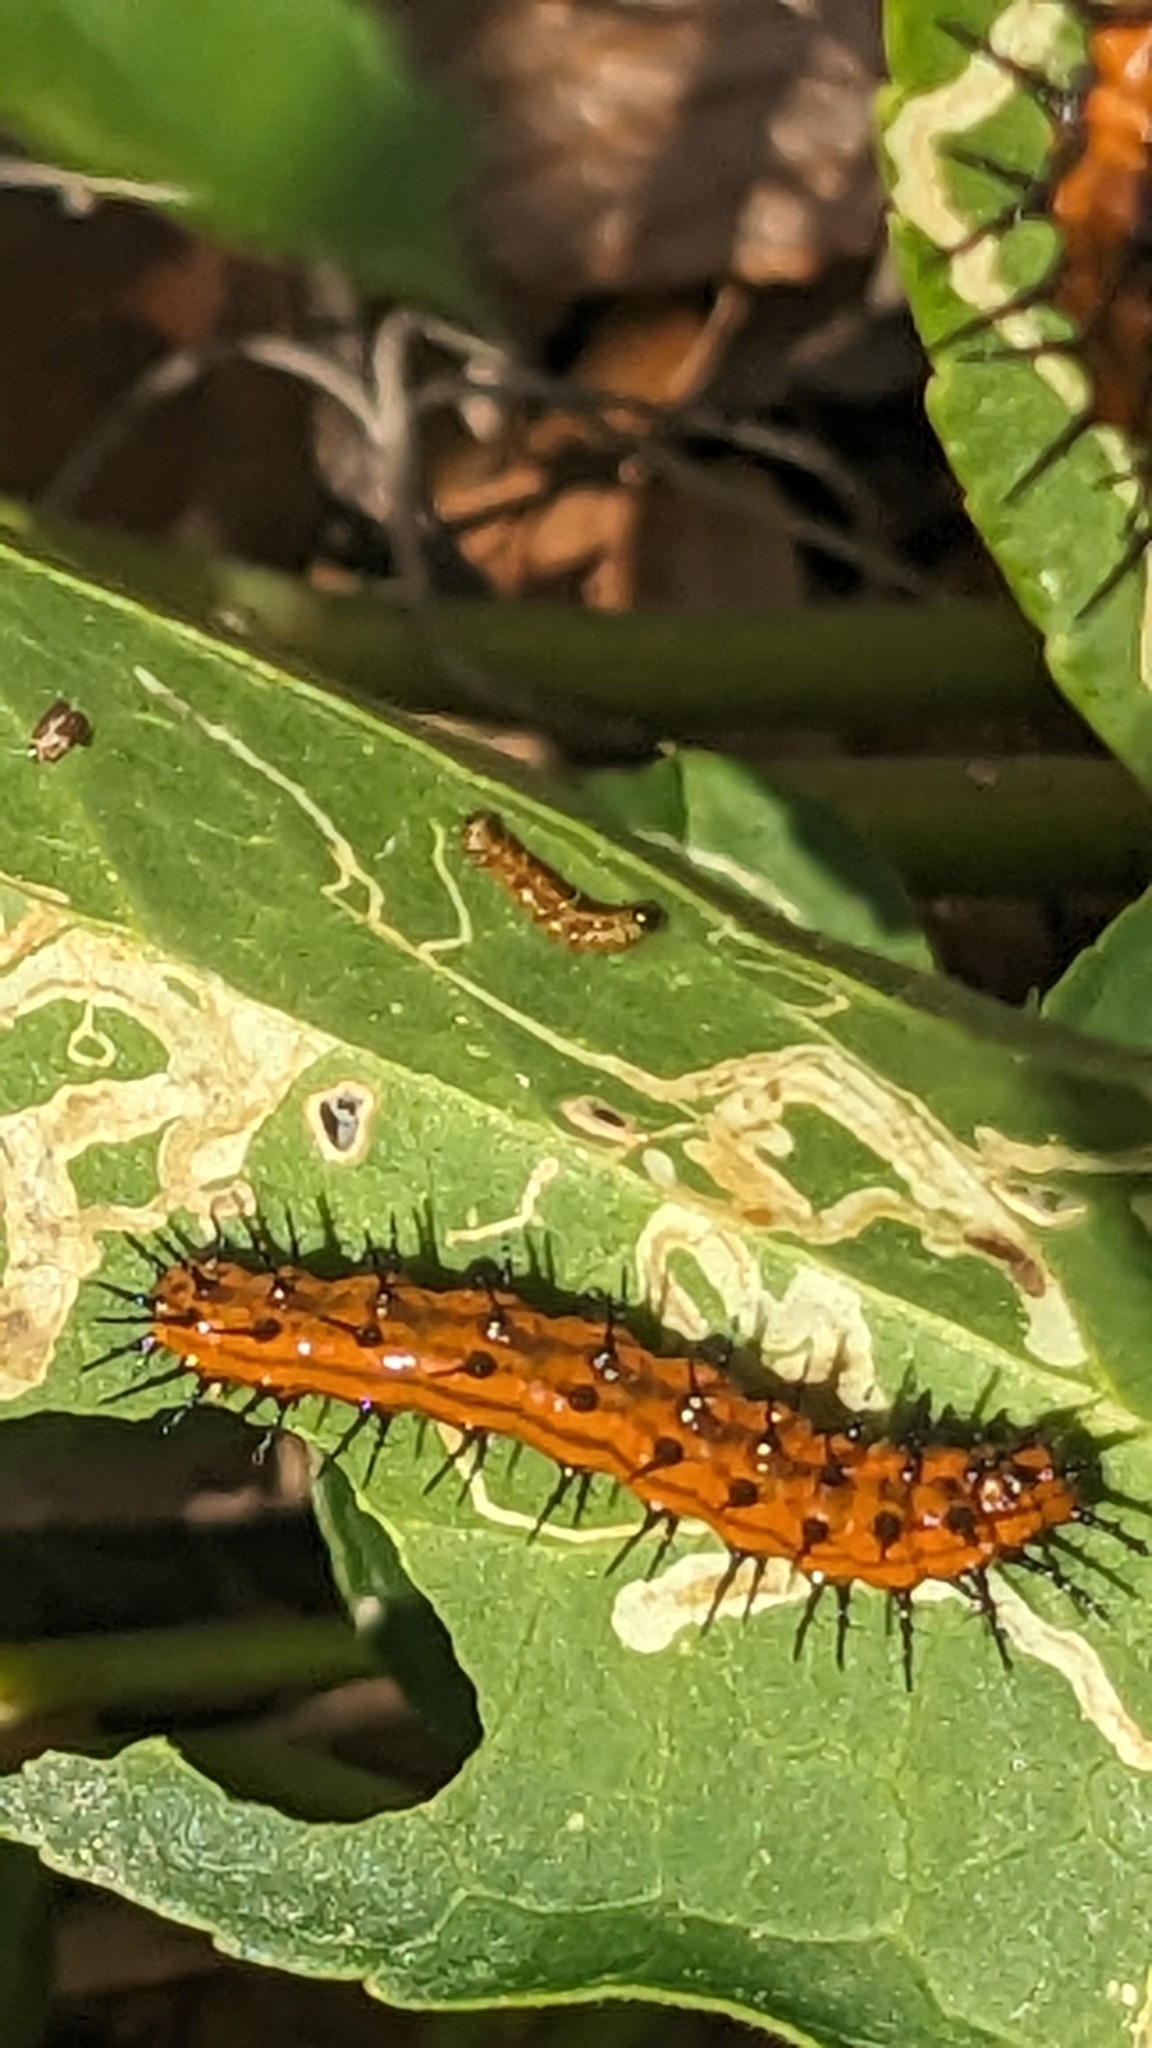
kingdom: Animalia
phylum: Arthropoda
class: Insecta
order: Lepidoptera
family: Nymphalidae
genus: Dione
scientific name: Dione vanillae
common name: Gulf fritillary
